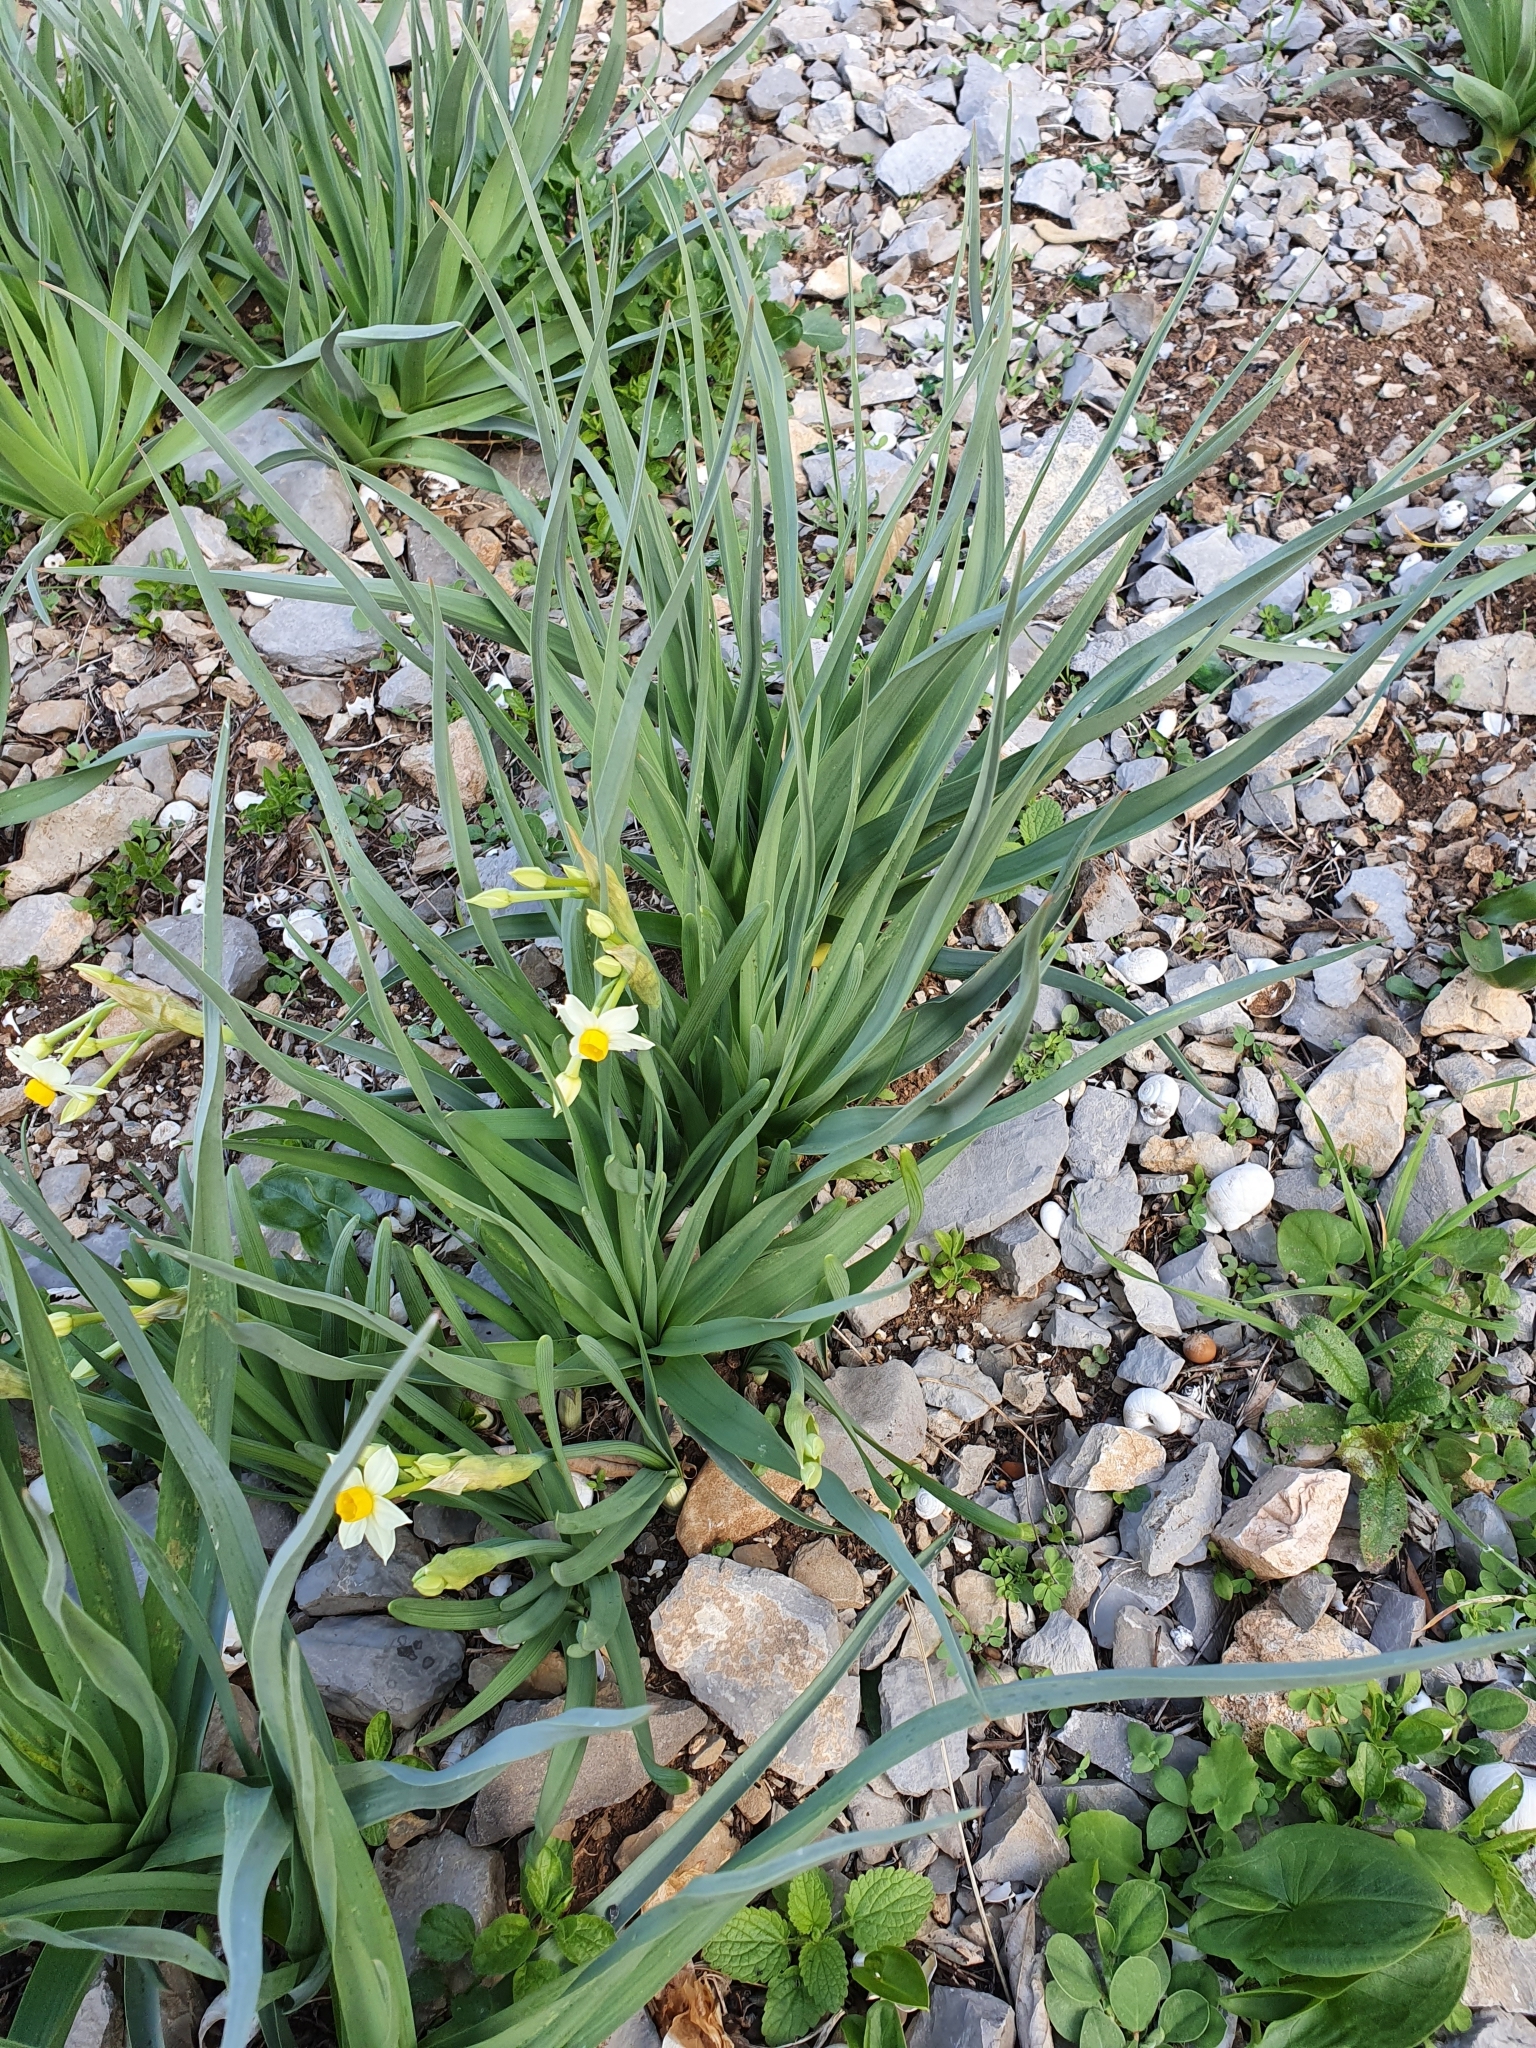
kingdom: Plantae
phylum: Tracheophyta
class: Liliopsida
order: Asparagales
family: Amaryllidaceae
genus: Narcissus
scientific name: Narcissus tazetta
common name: Bunch-flowered daffodil
